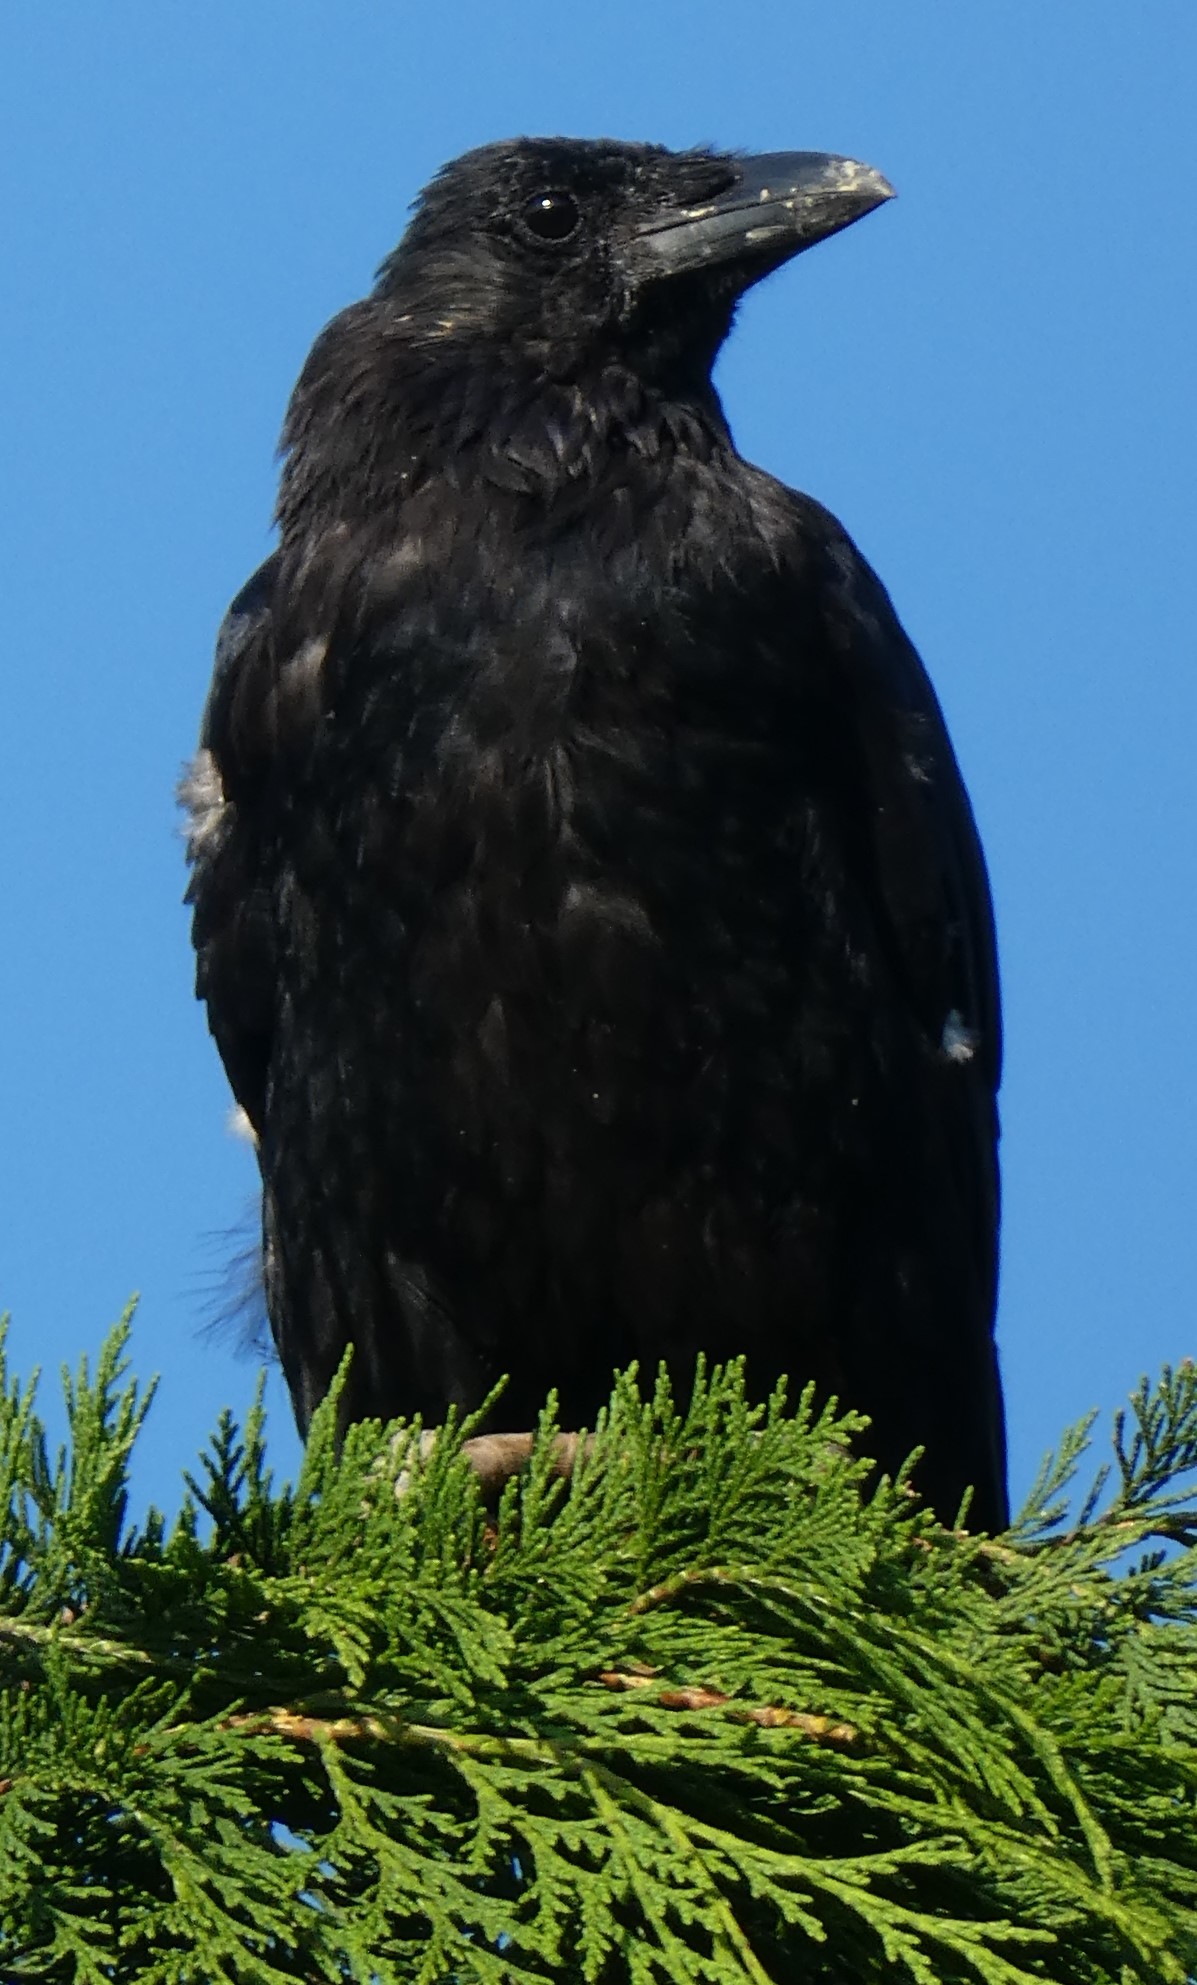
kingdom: Animalia
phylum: Chordata
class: Aves
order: Passeriformes
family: Corvidae
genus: Corvus
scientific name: Corvus corone
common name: Carrion crow
